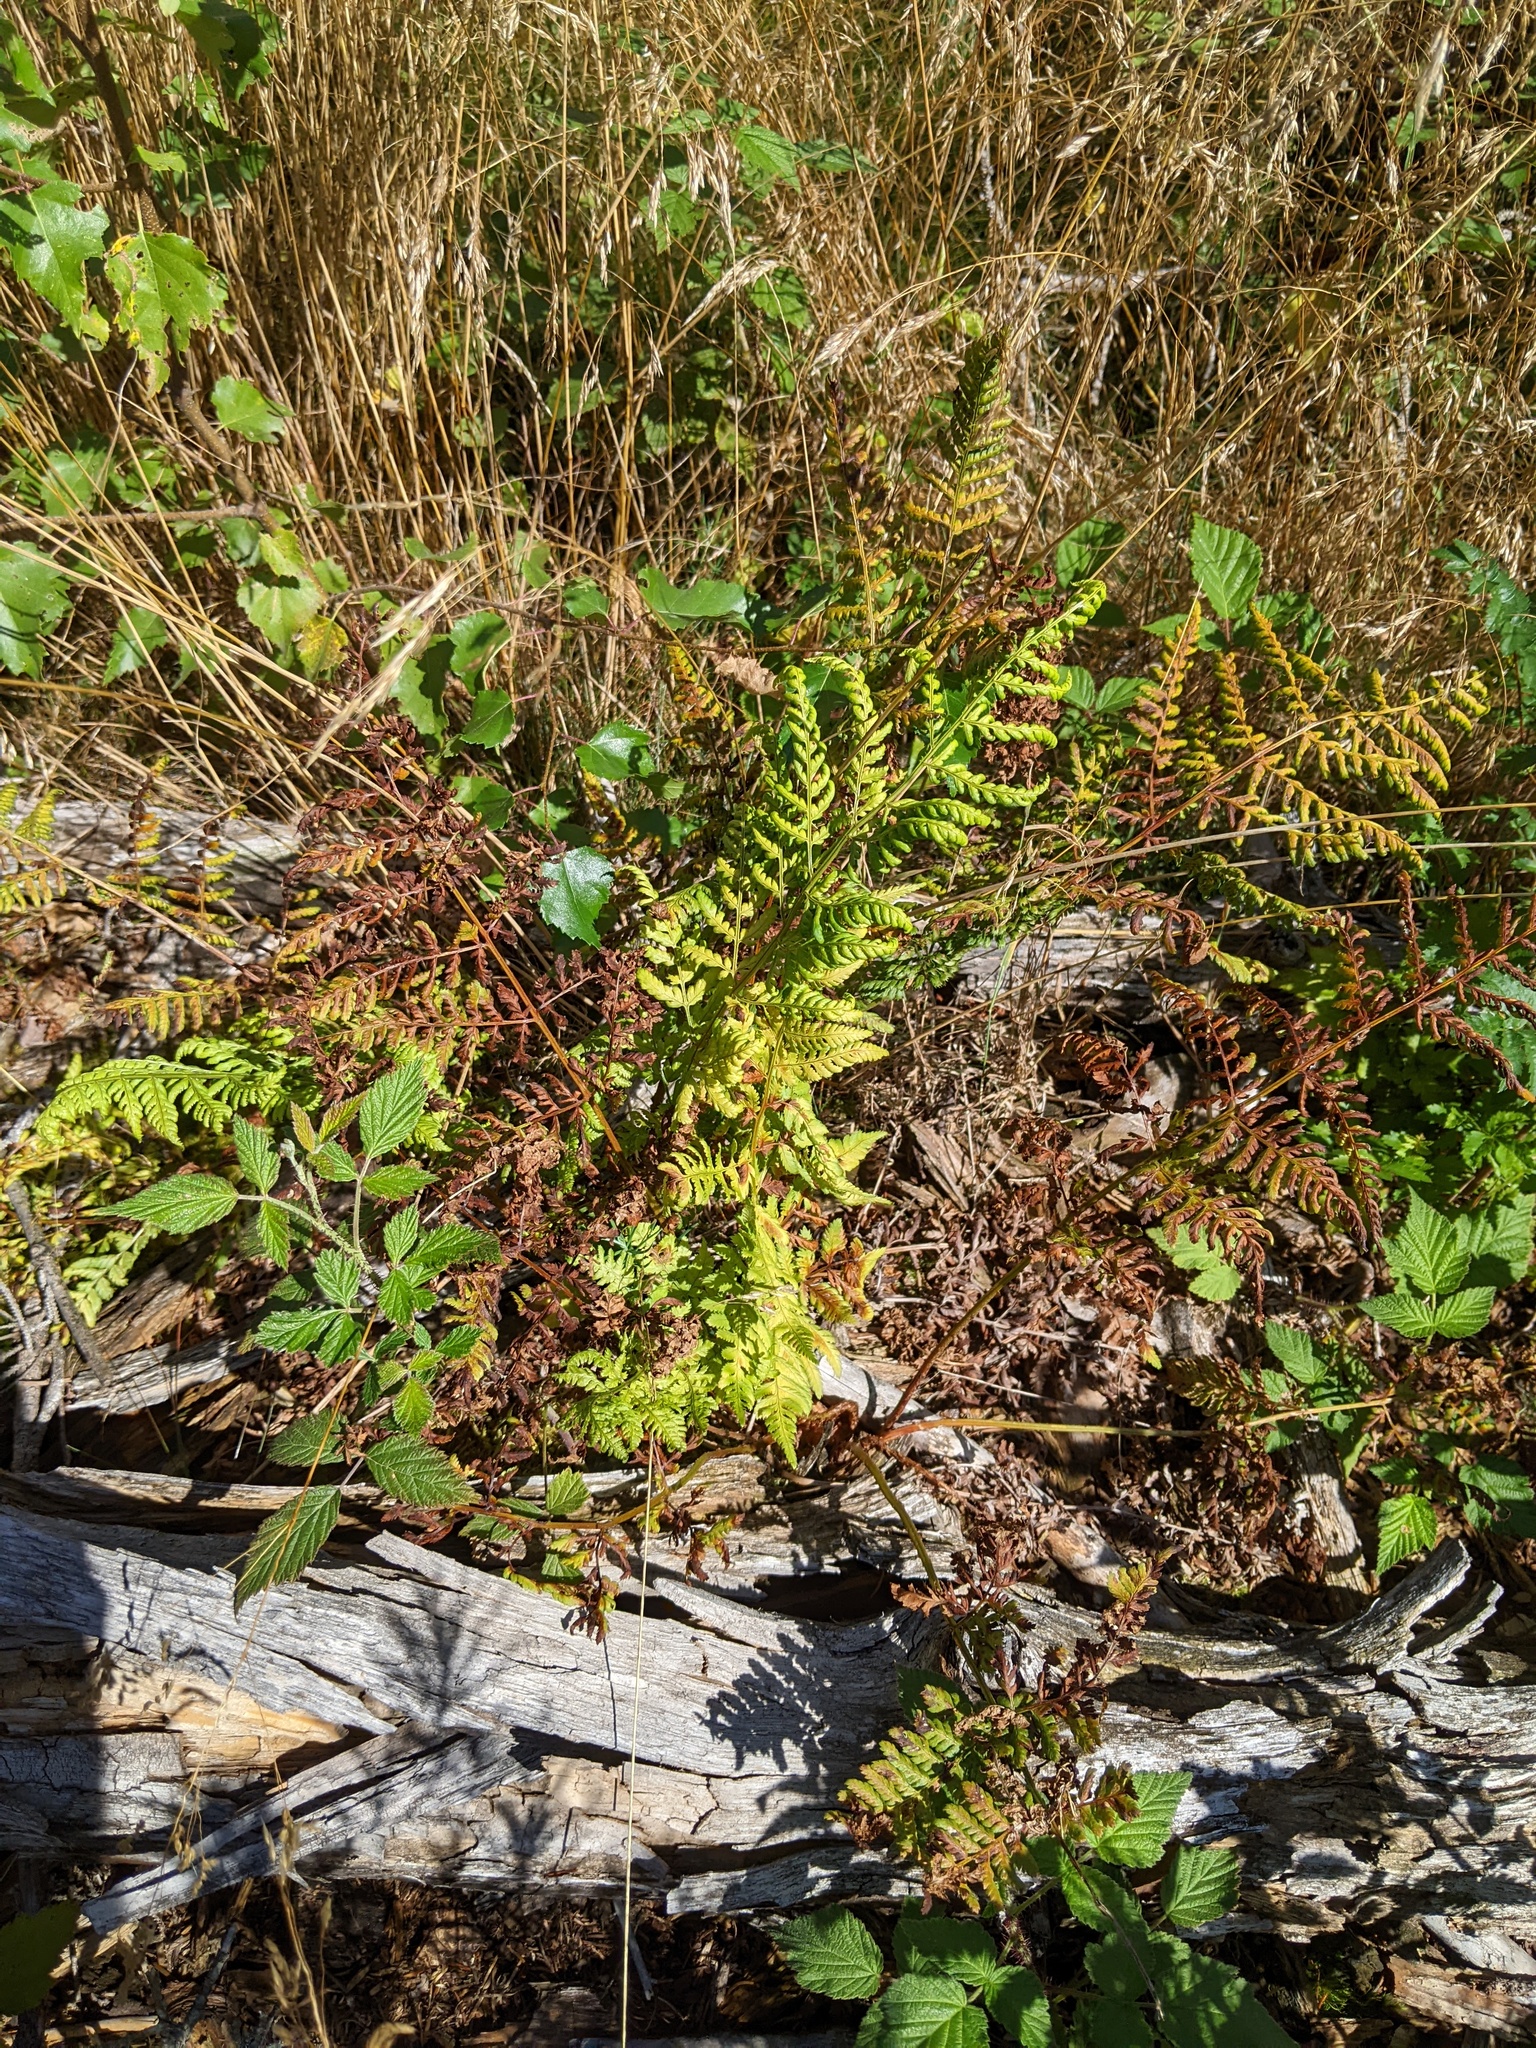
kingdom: Plantae
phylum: Tracheophyta
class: Polypodiopsida
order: Polypodiales
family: Dryopteridaceae
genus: Dryopteris
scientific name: Dryopteris filix-mas
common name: Male fern
